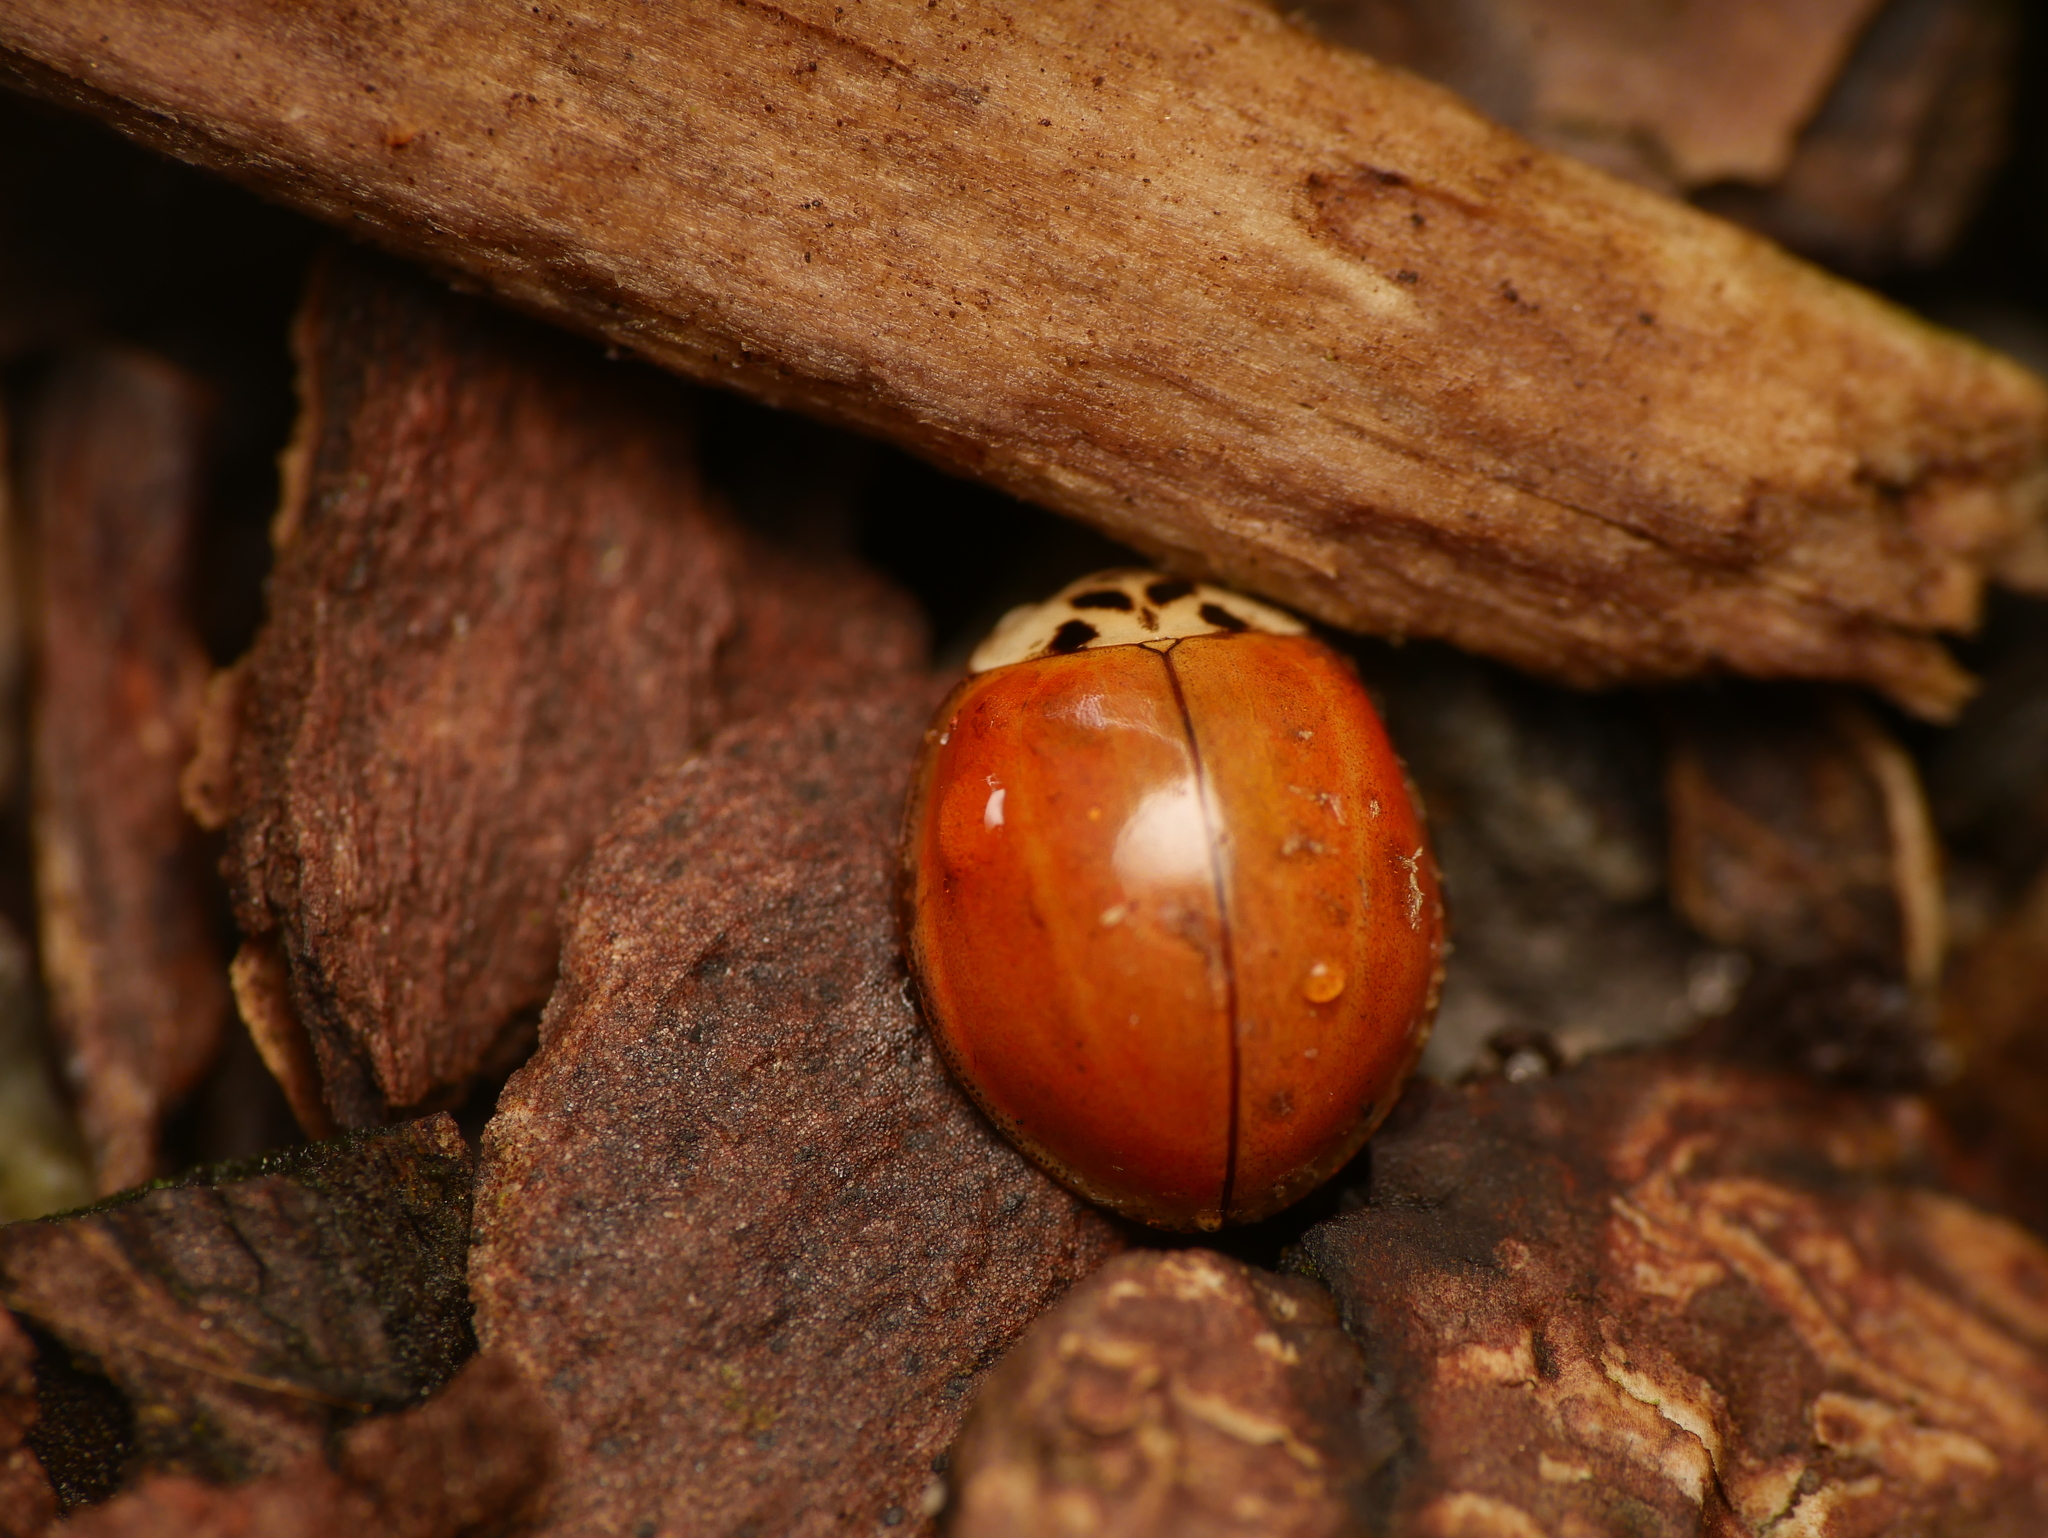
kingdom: Animalia
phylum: Arthropoda
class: Insecta
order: Coleoptera
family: Coccinellidae
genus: Harmonia
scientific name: Harmonia axyridis
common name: Harlequin ladybird
